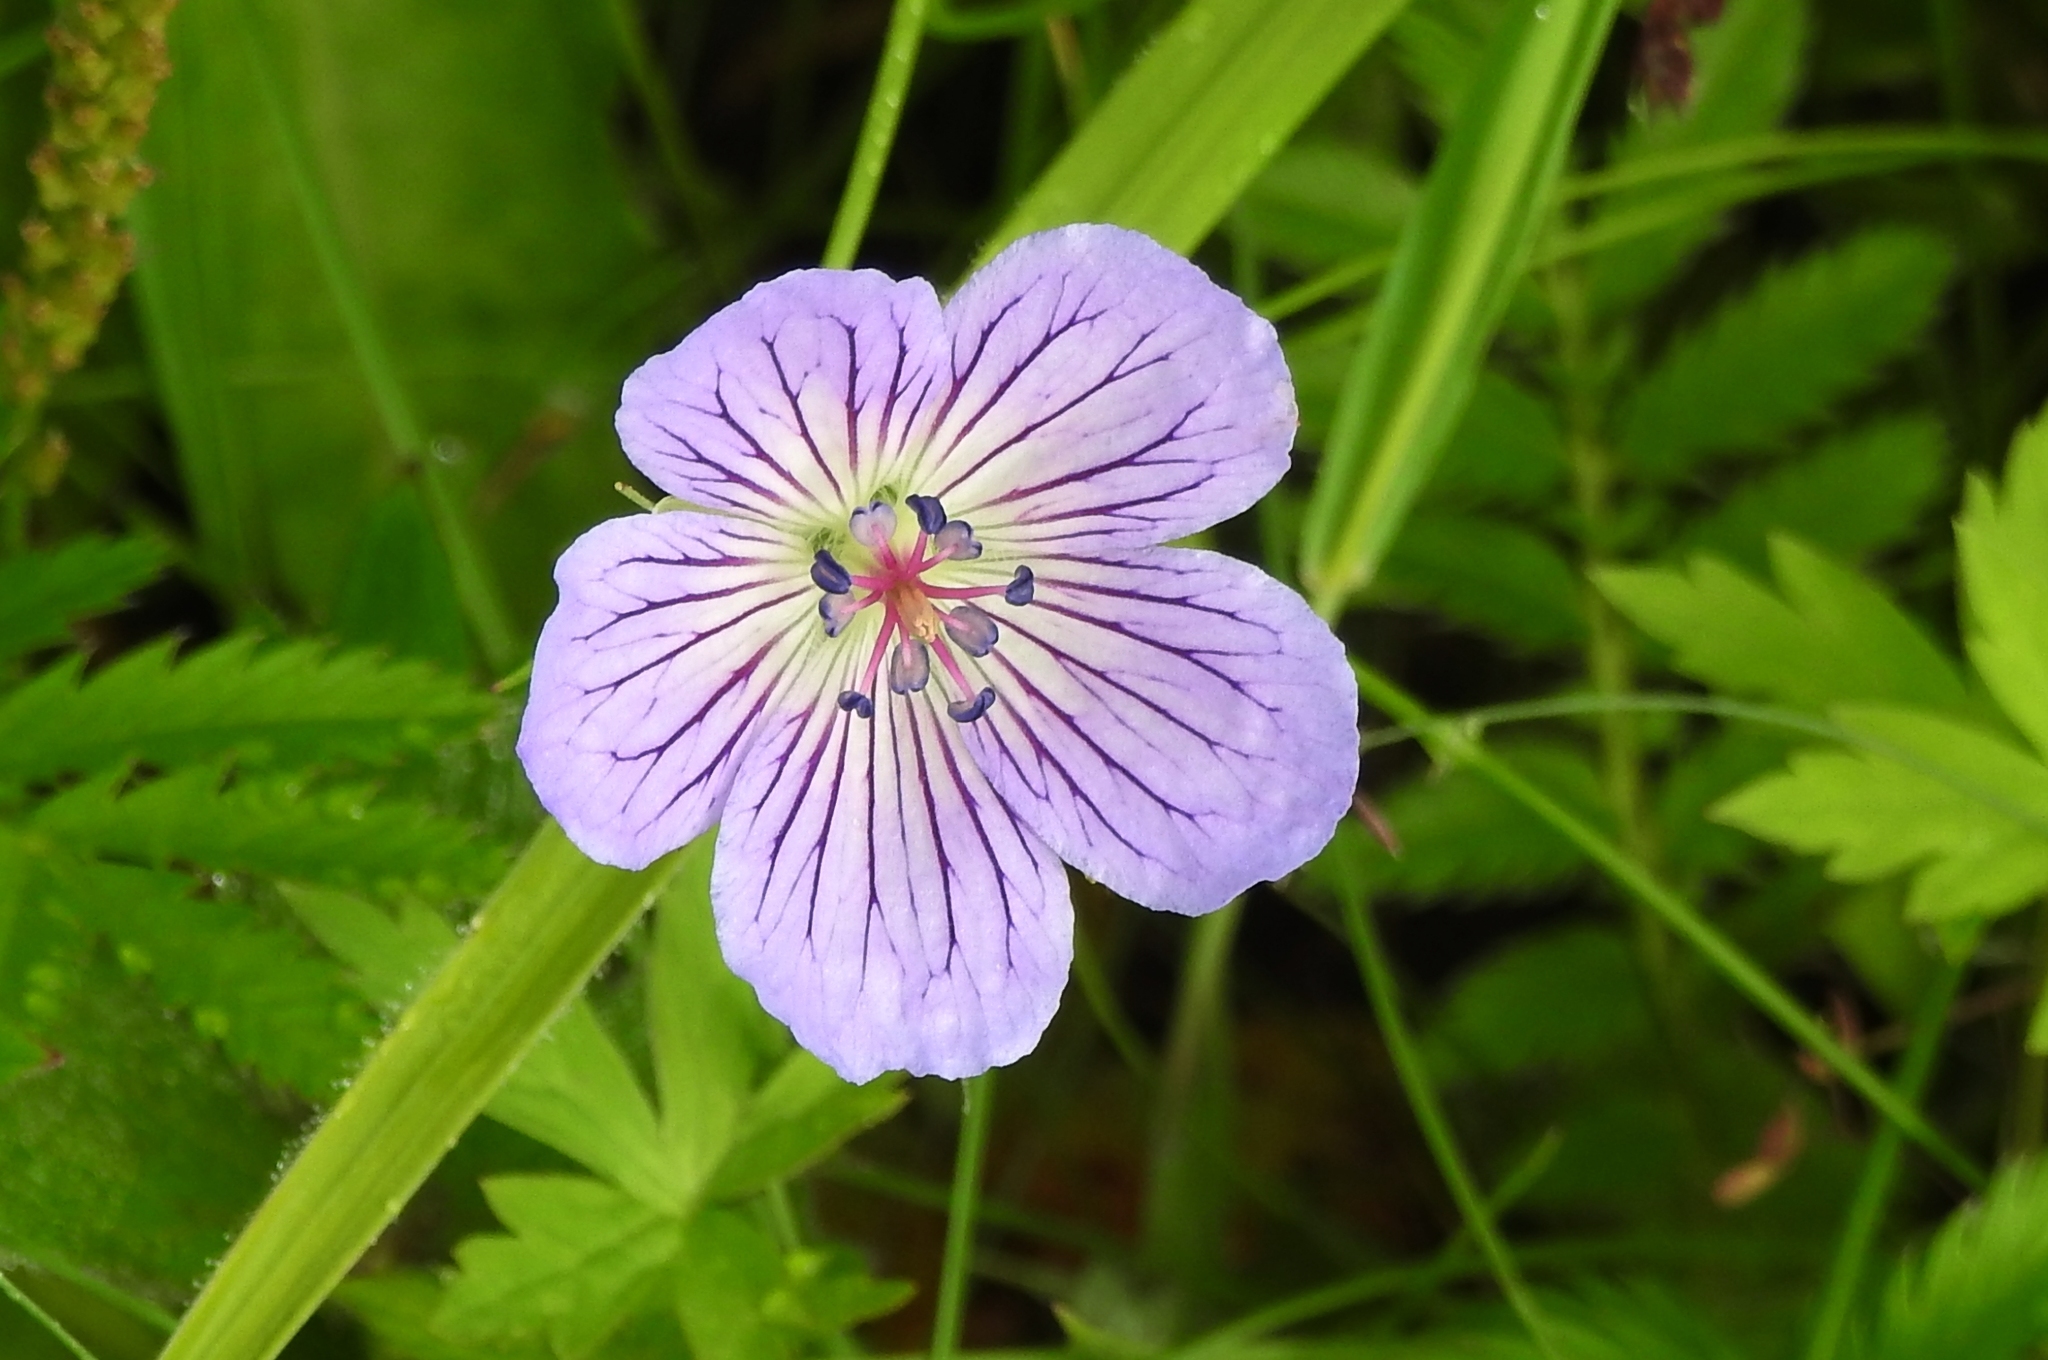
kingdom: Plantae
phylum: Tracheophyta
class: Magnoliopsida
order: Geraniales
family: Geraniaceae
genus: Geranium
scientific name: Geranium wlassovianum
